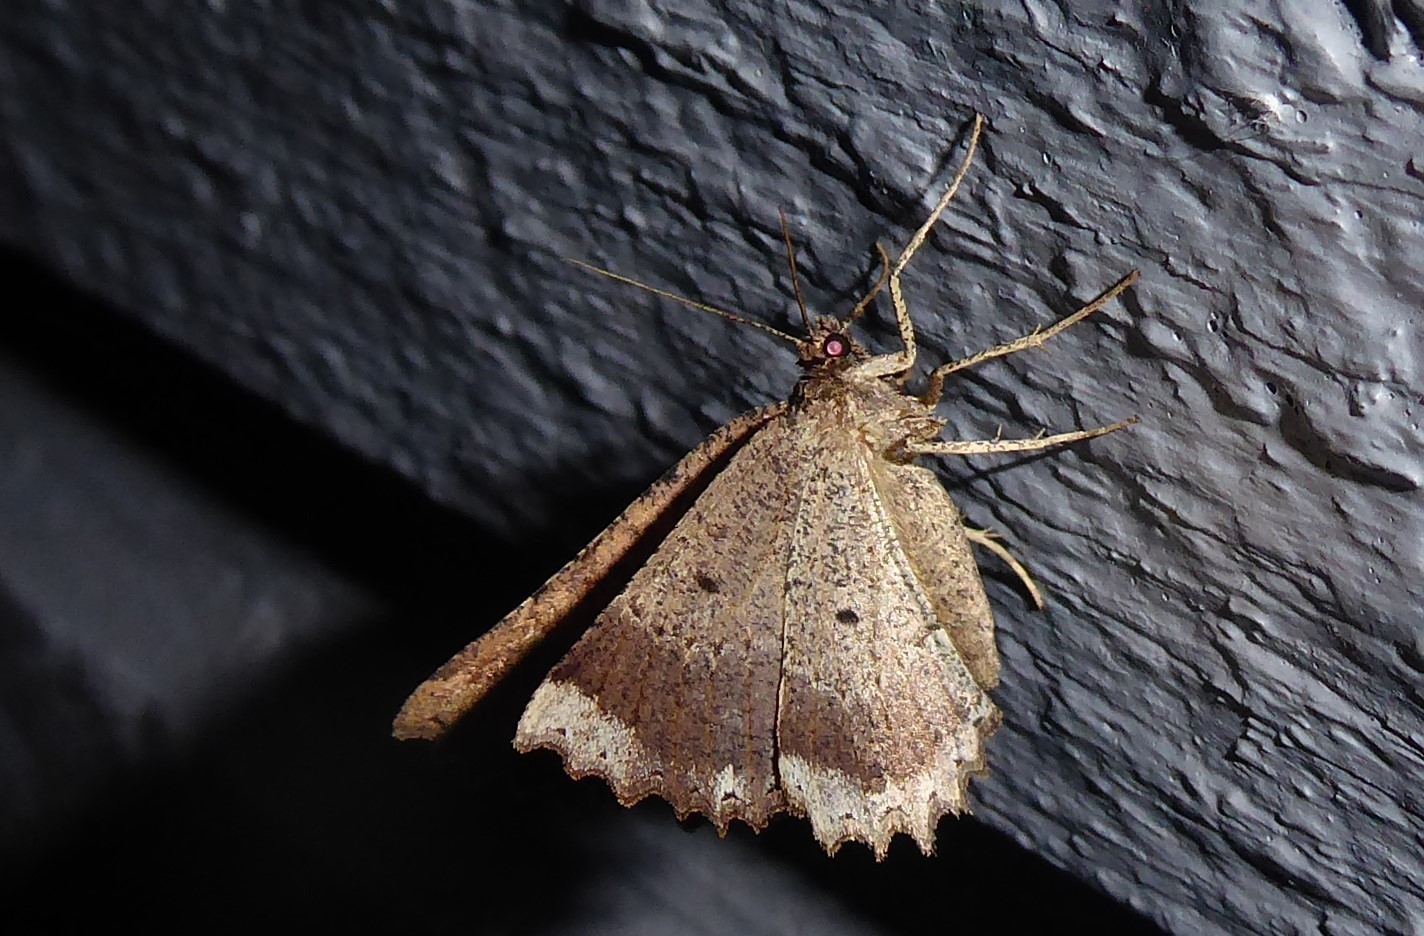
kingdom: Animalia
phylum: Arthropoda
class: Insecta
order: Lepidoptera
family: Geometridae
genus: Gellonia
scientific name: Gellonia pannularia
